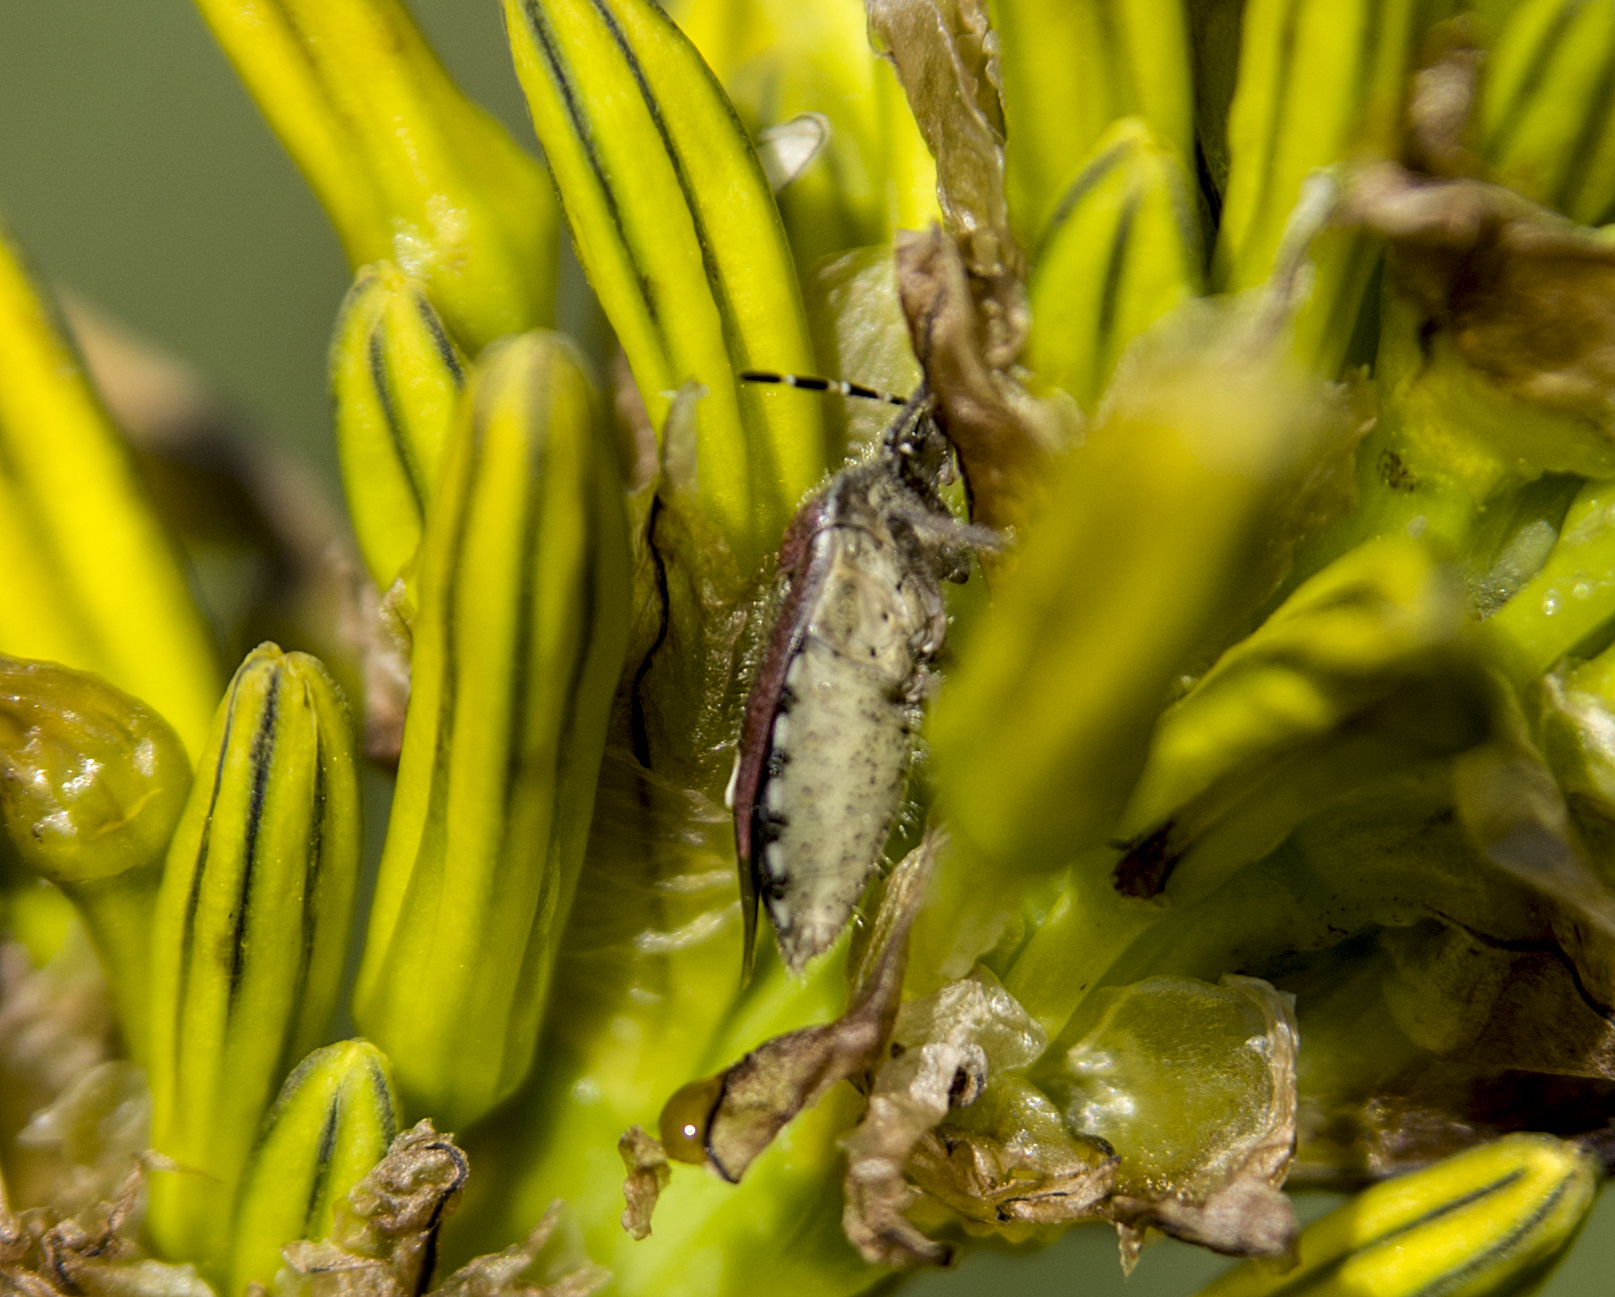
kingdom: Animalia
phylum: Arthropoda
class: Insecta
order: Hemiptera
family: Pentatomidae
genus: Carpocoris
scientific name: Carpocoris purpureipennis
